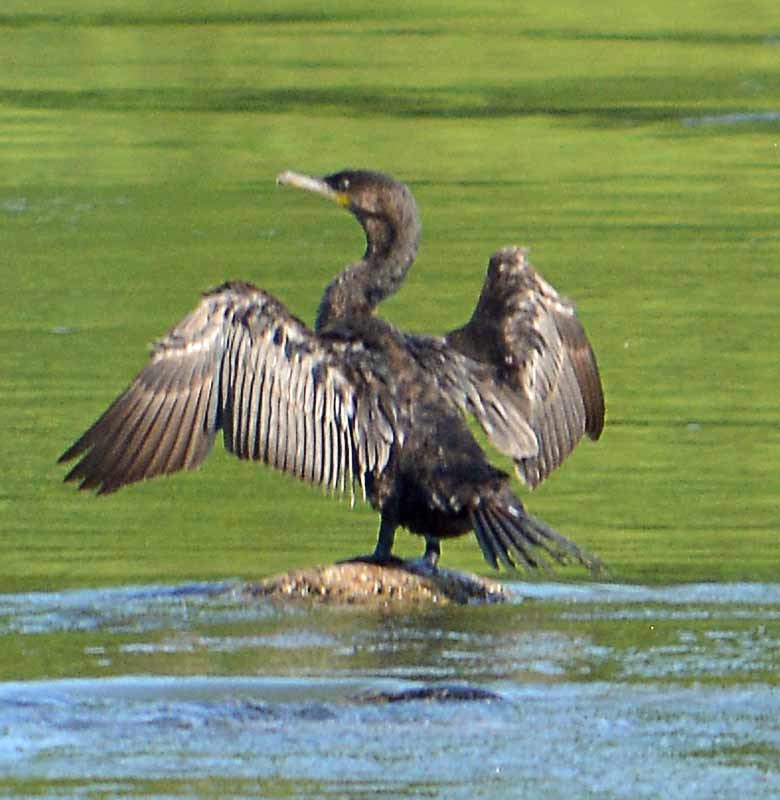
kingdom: Animalia
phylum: Chordata
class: Aves
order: Suliformes
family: Phalacrocoracidae
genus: Phalacrocorax
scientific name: Phalacrocorax brasilianus
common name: Neotropic cormorant
